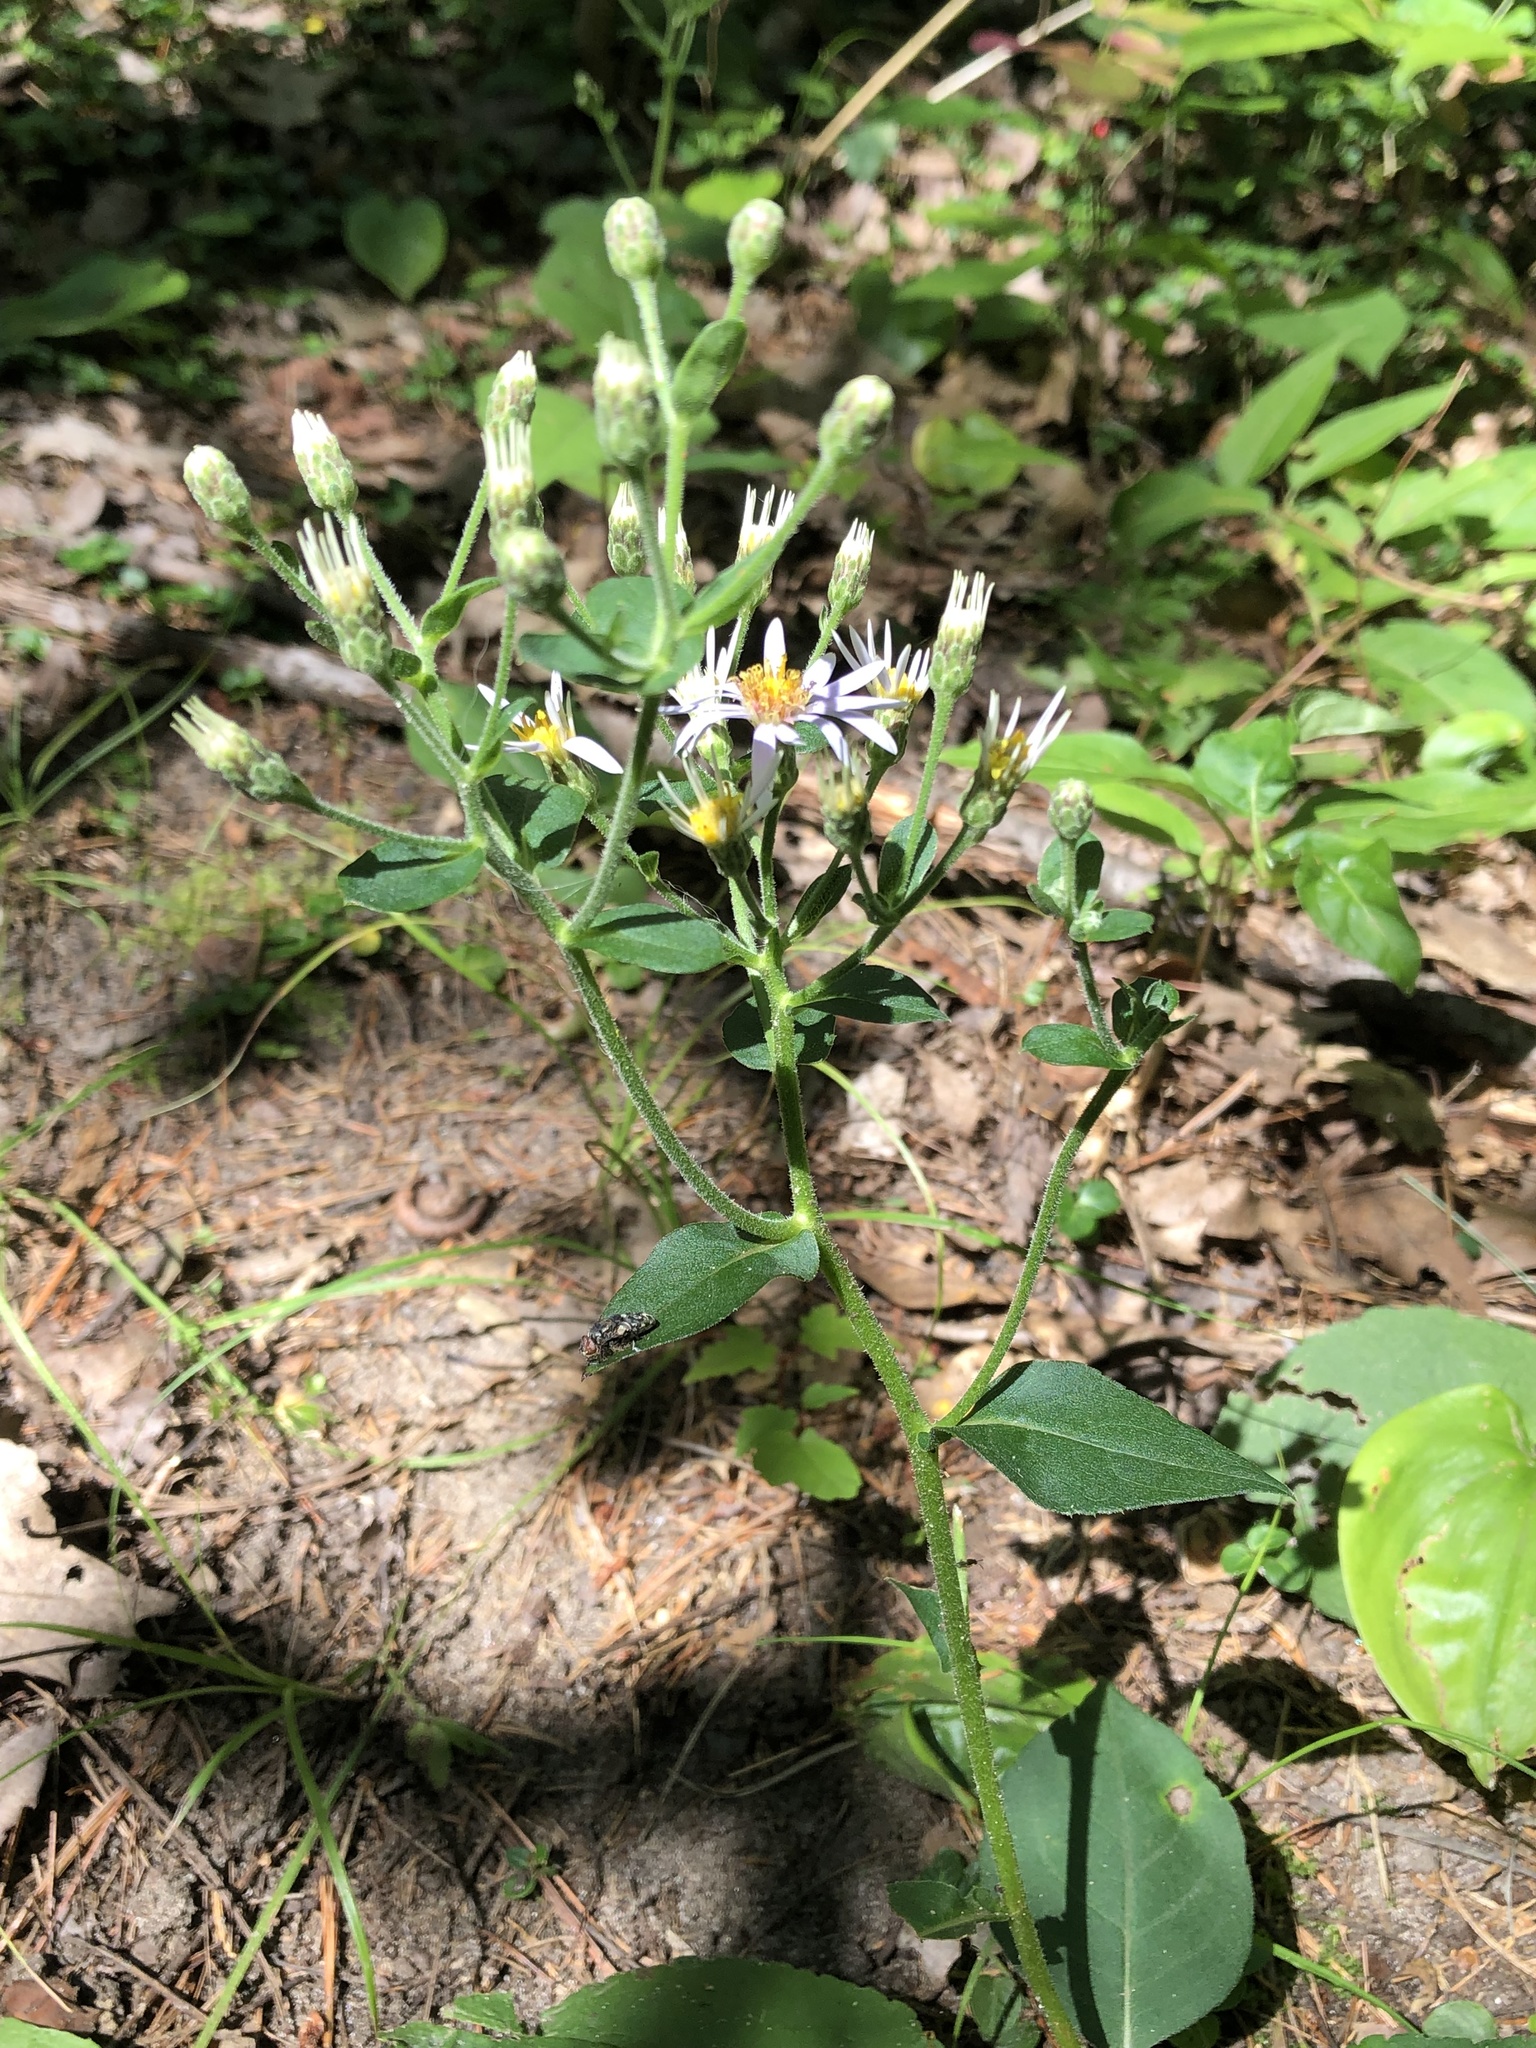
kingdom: Plantae
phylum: Tracheophyta
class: Magnoliopsida
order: Asterales
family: Asteraceae
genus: Eurybia
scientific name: Eurybia macrophylla
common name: Big-leaved aster
